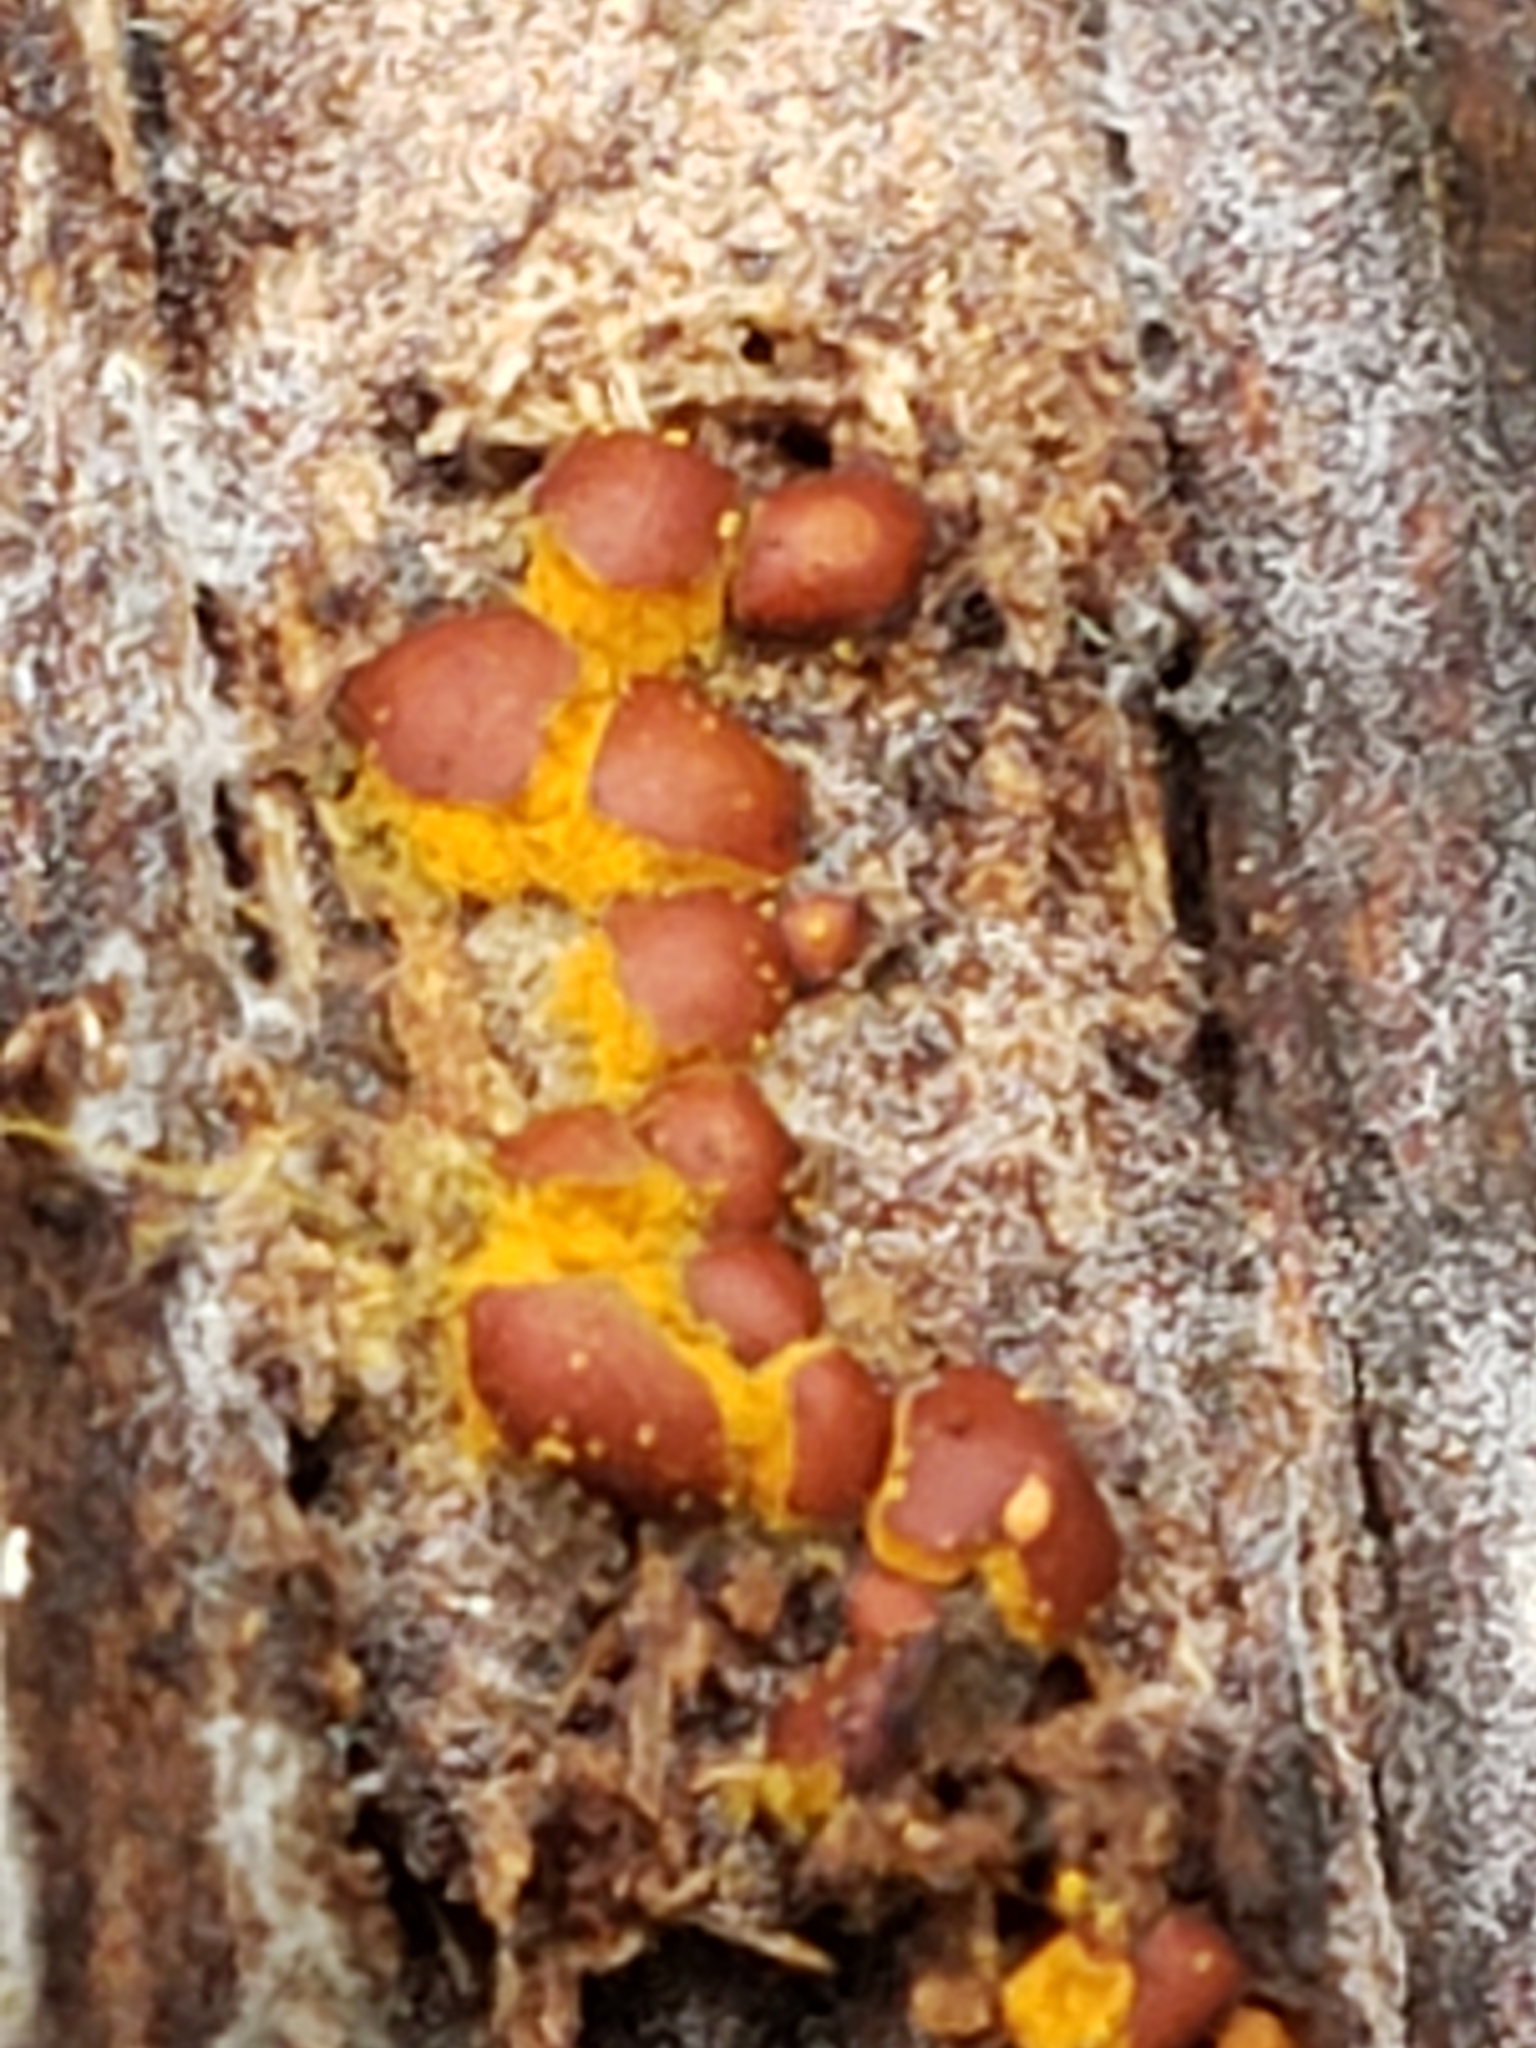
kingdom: Protozoa
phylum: Mycetozoa
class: Myxomycetes
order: Trichiales
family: Trichiaceae
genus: Perichaena
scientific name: Perichaena depressa
